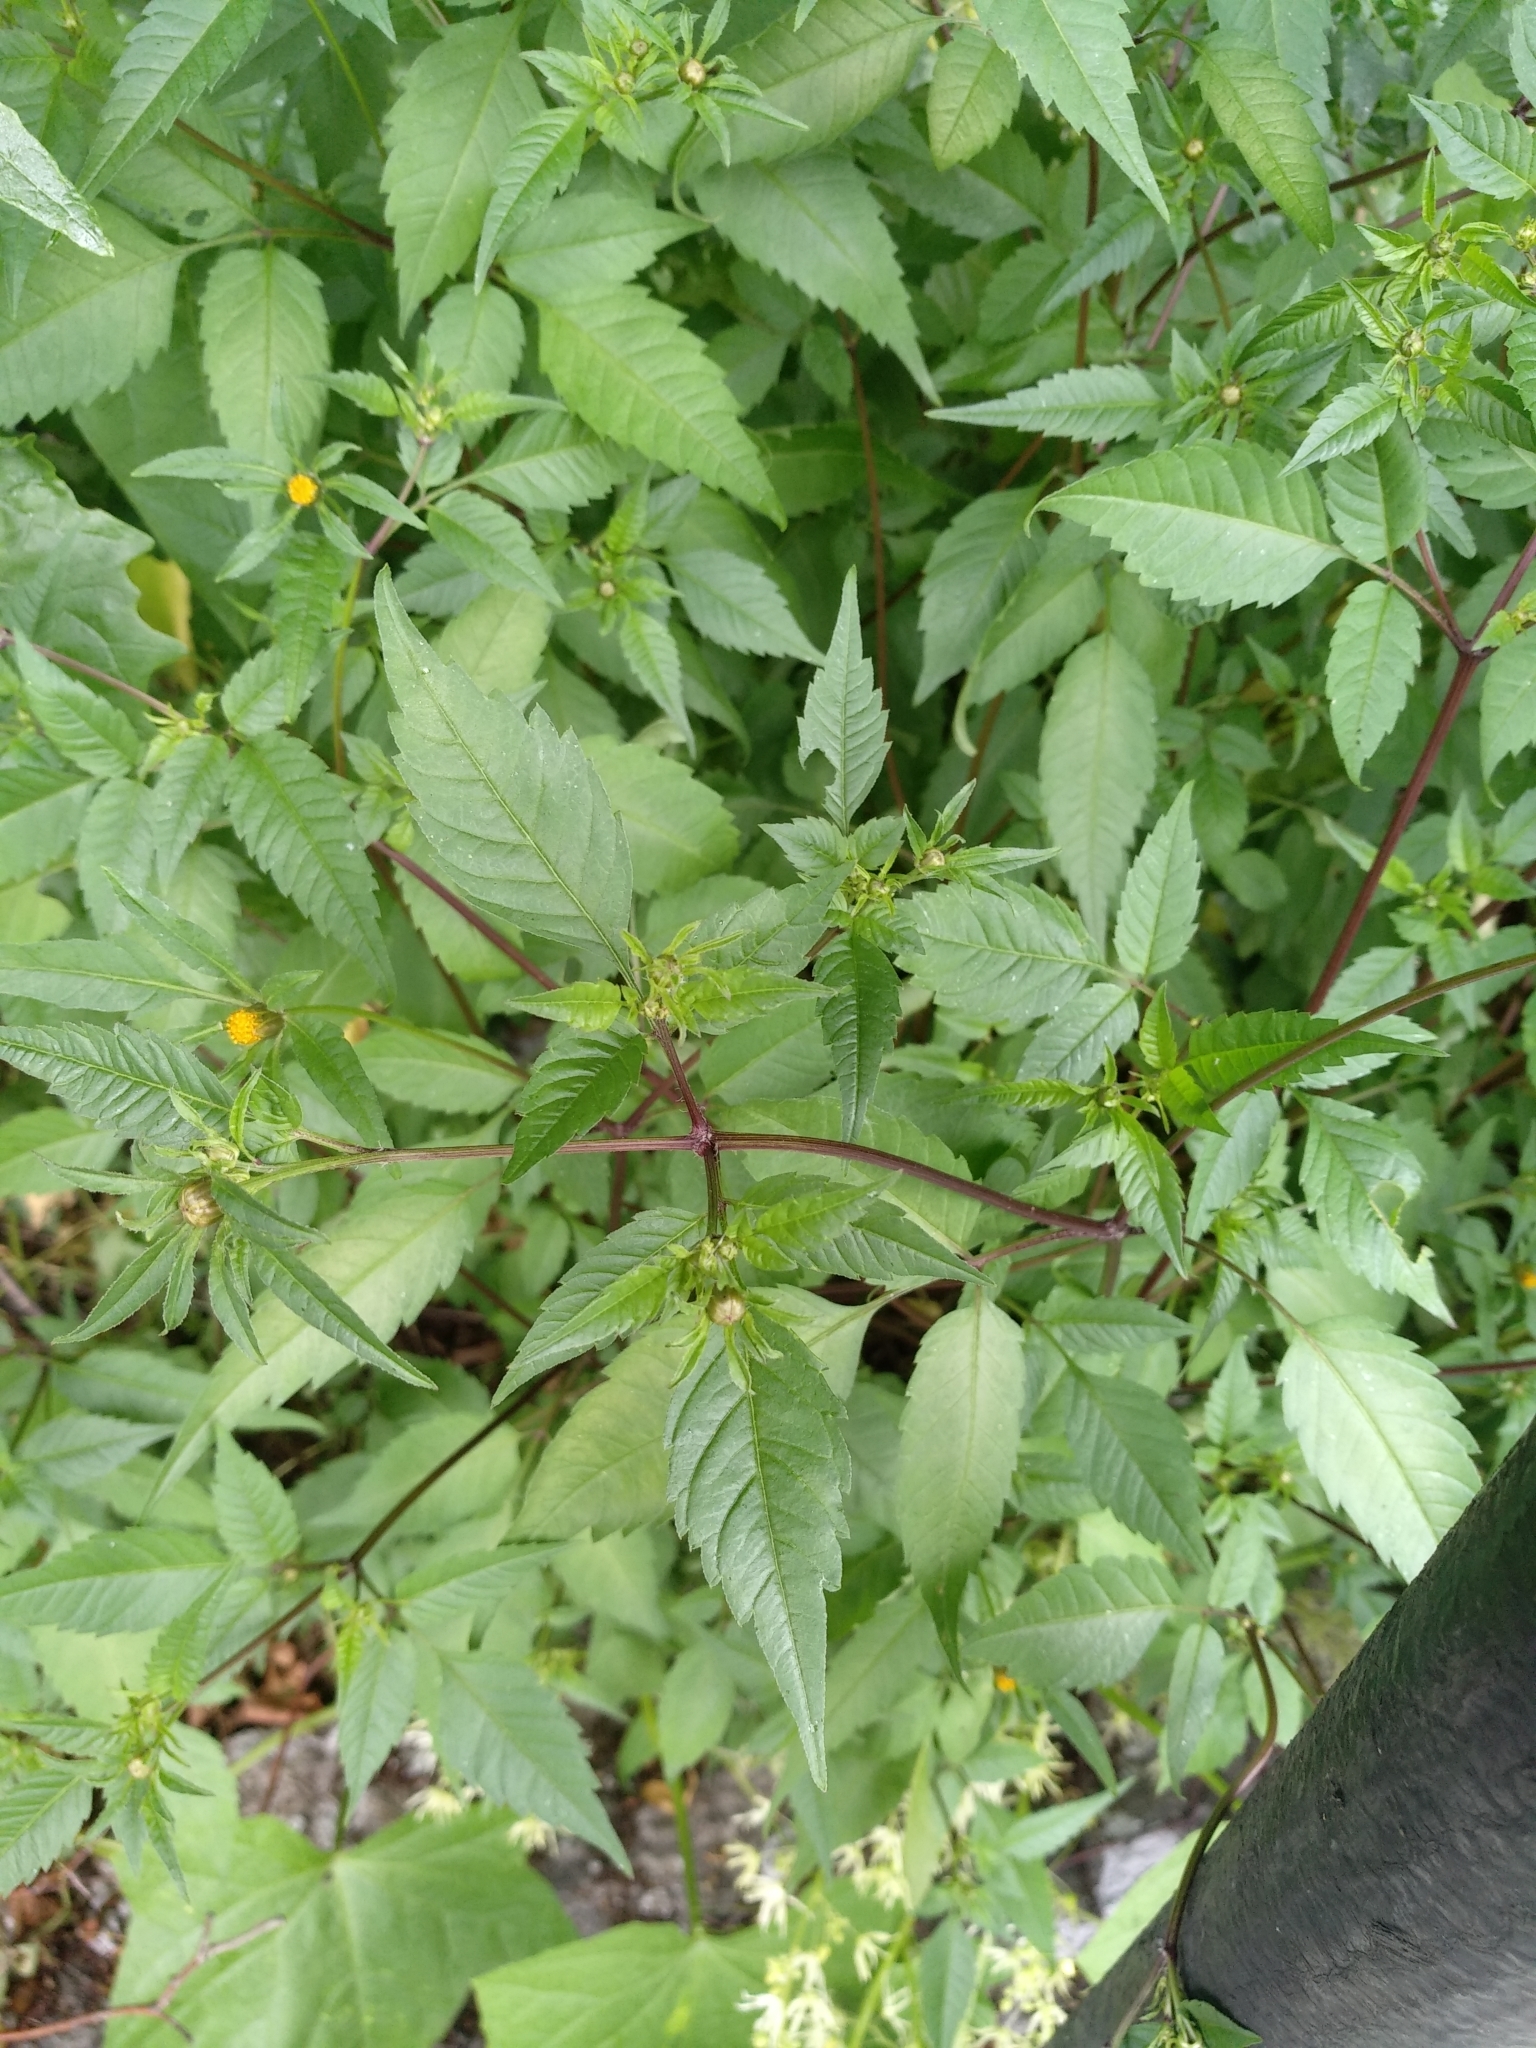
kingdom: Plantae
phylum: Tracheophyta
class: Magnoliopsida
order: Asterales
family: Asteraceae
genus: Bidens
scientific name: Bidens frondosa
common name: Beggarticks
